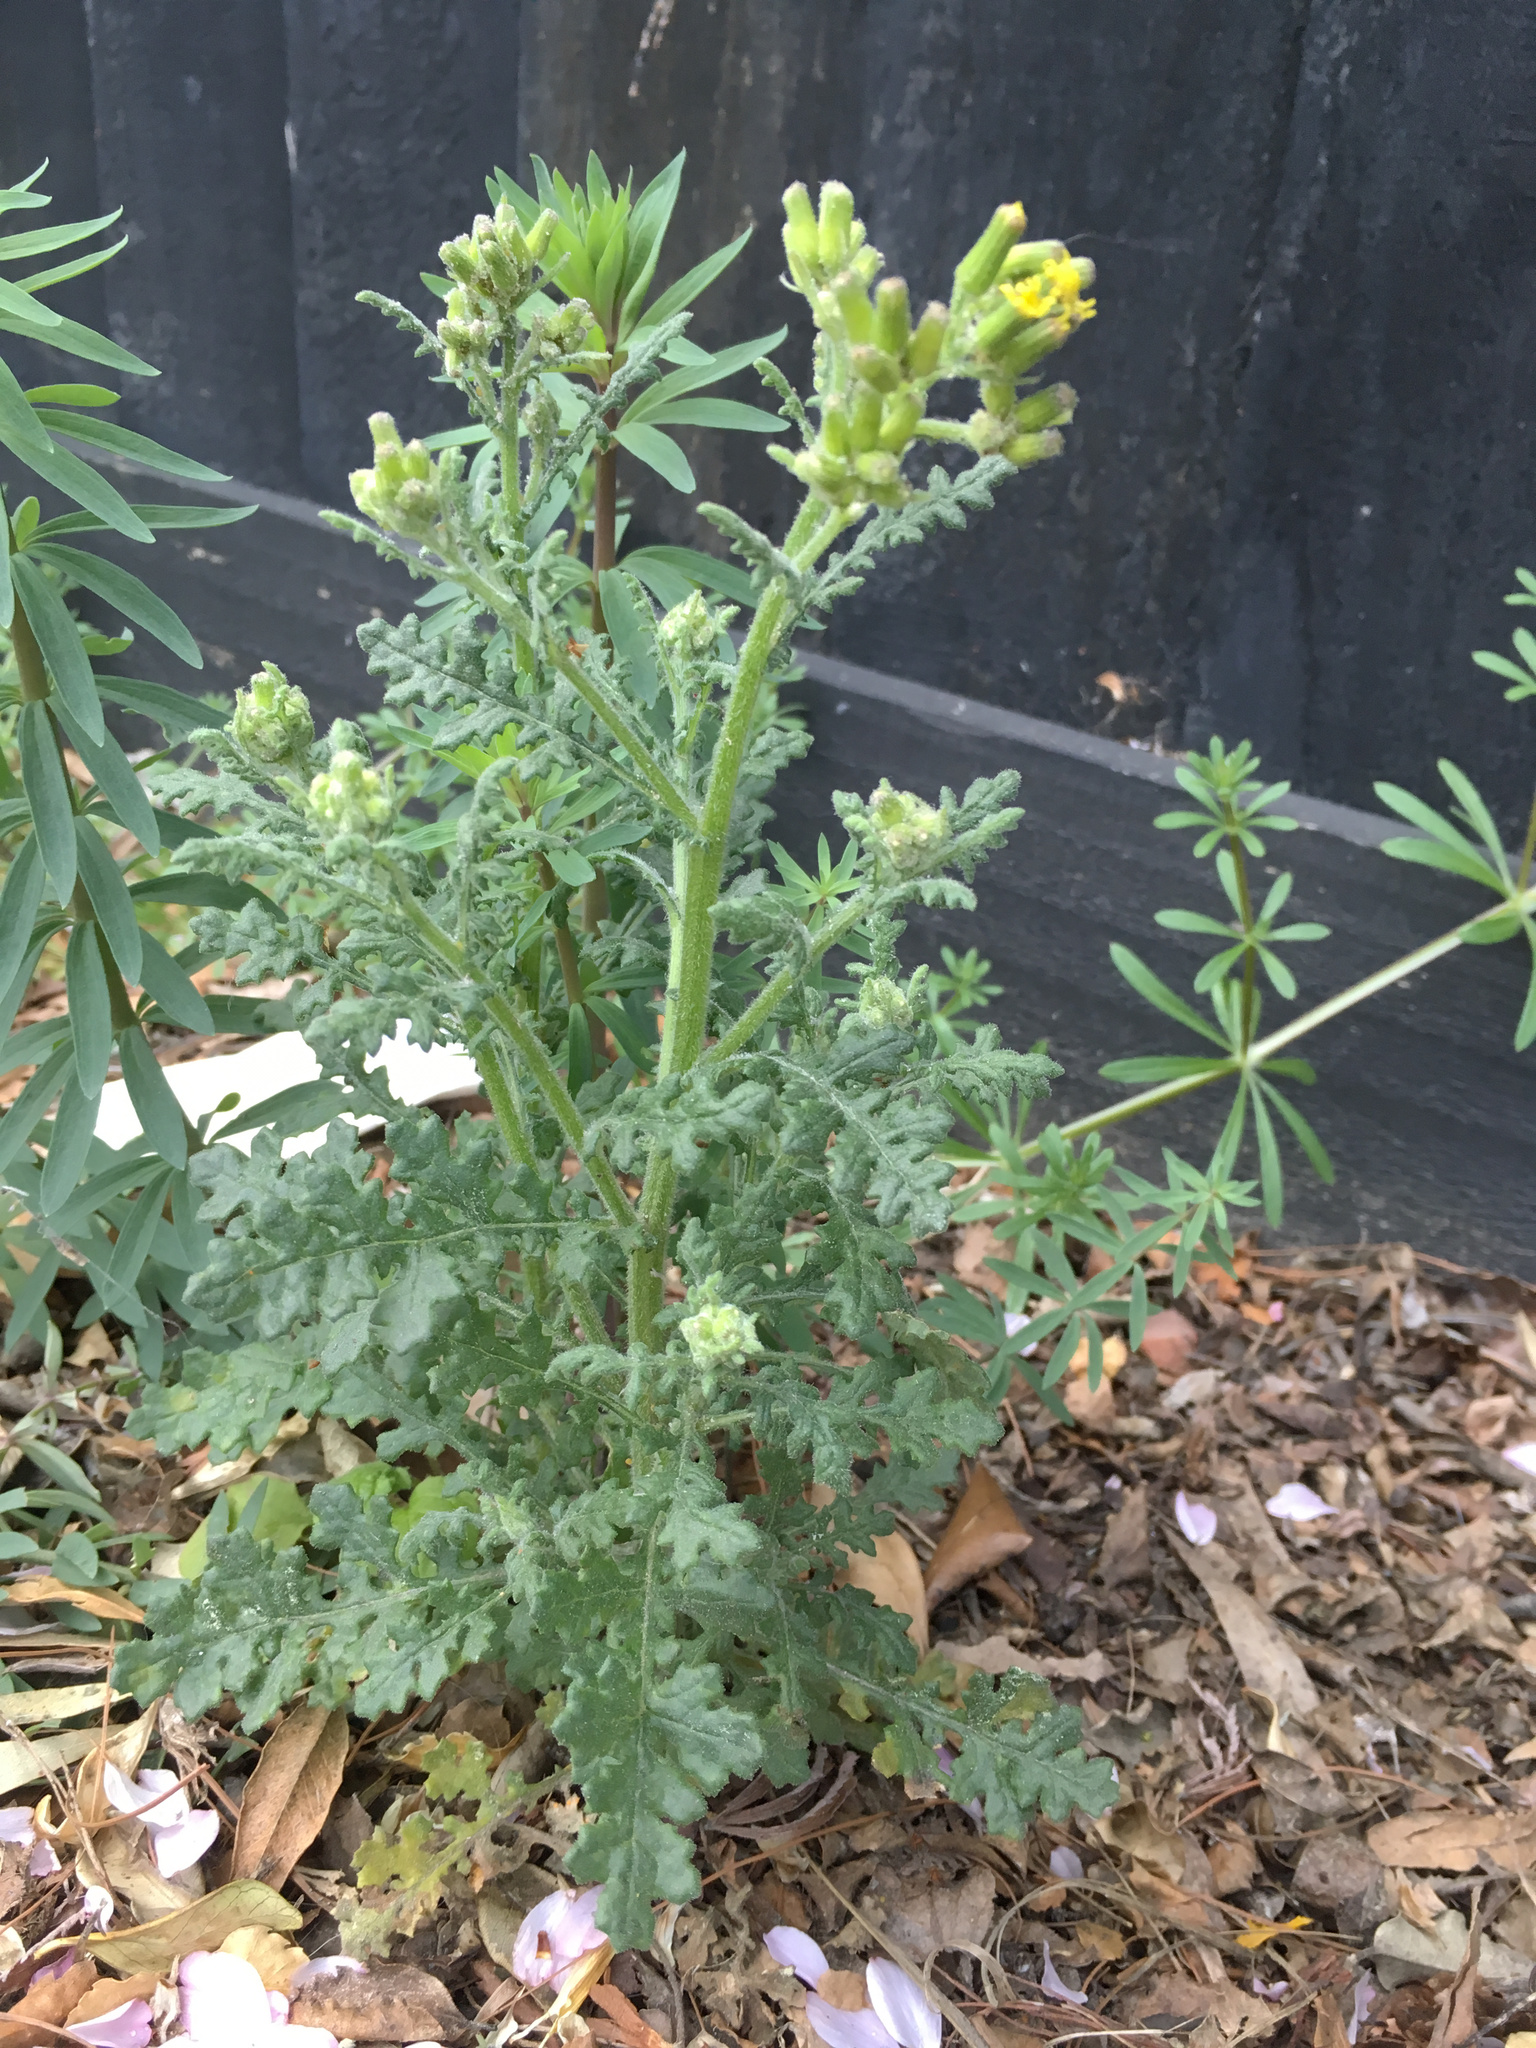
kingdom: Plantae
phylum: Tracheophyta
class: Magnoliopsida
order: Asterales
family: Asteraceae
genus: Senecio
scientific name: Senecio sylvaticus
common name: Woodland ragwort
